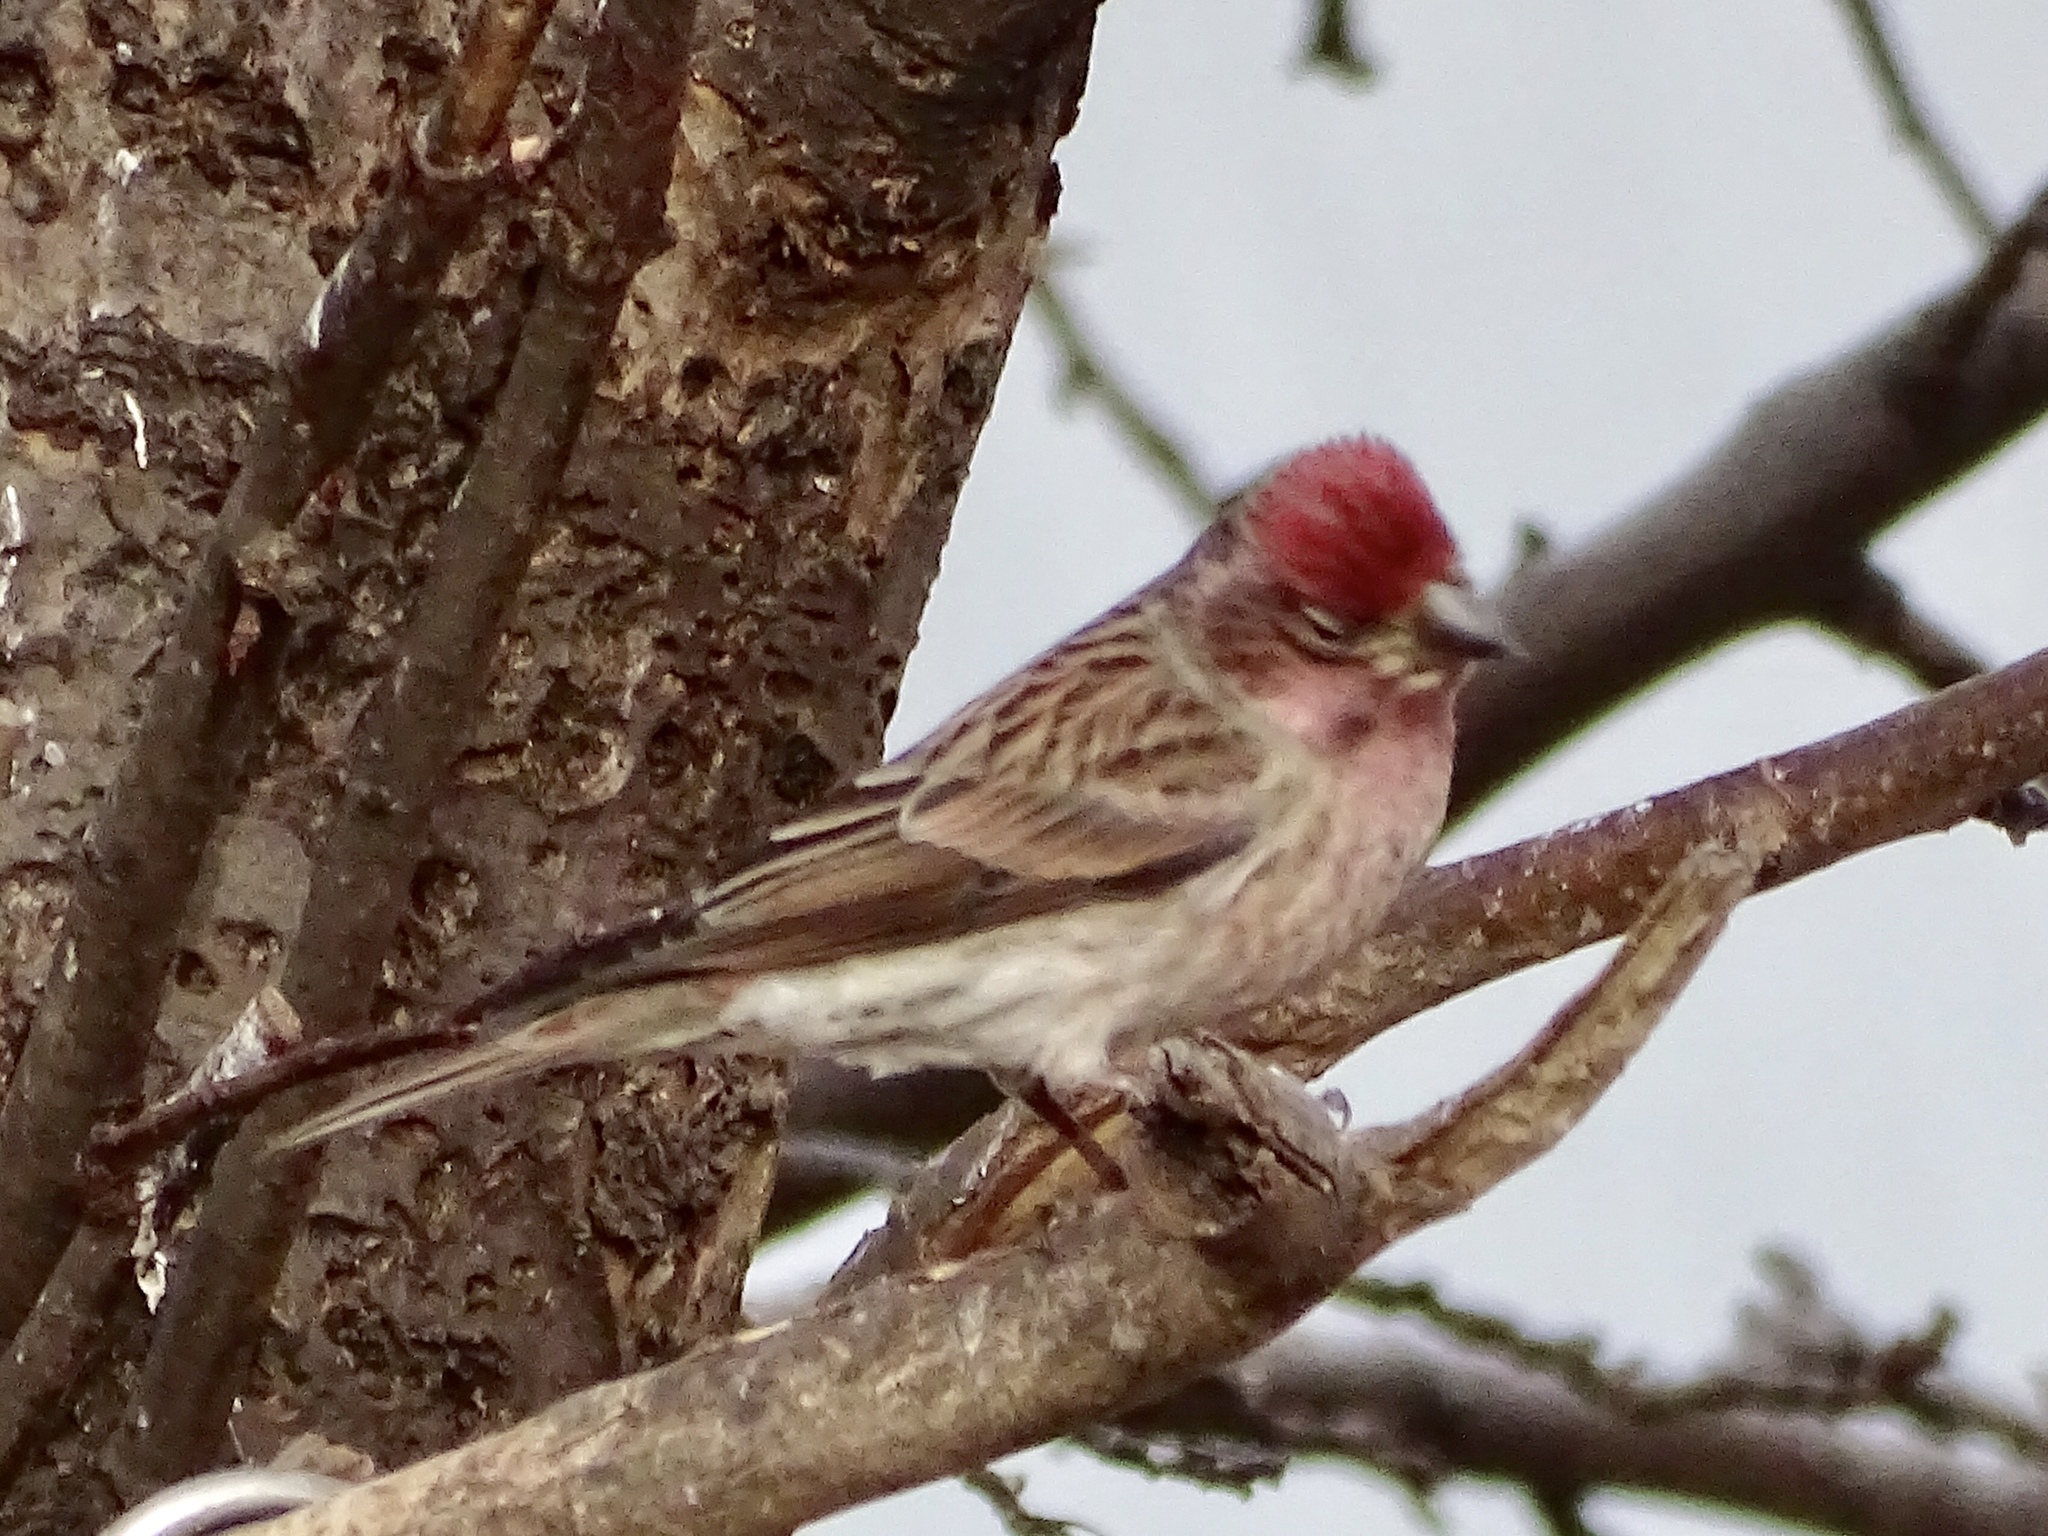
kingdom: Animalia
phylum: Chordata
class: Aves
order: Passeriformes
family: Fringillidae
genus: Haemorhous
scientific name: Haemorhous cassinii
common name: Cassin's finch
